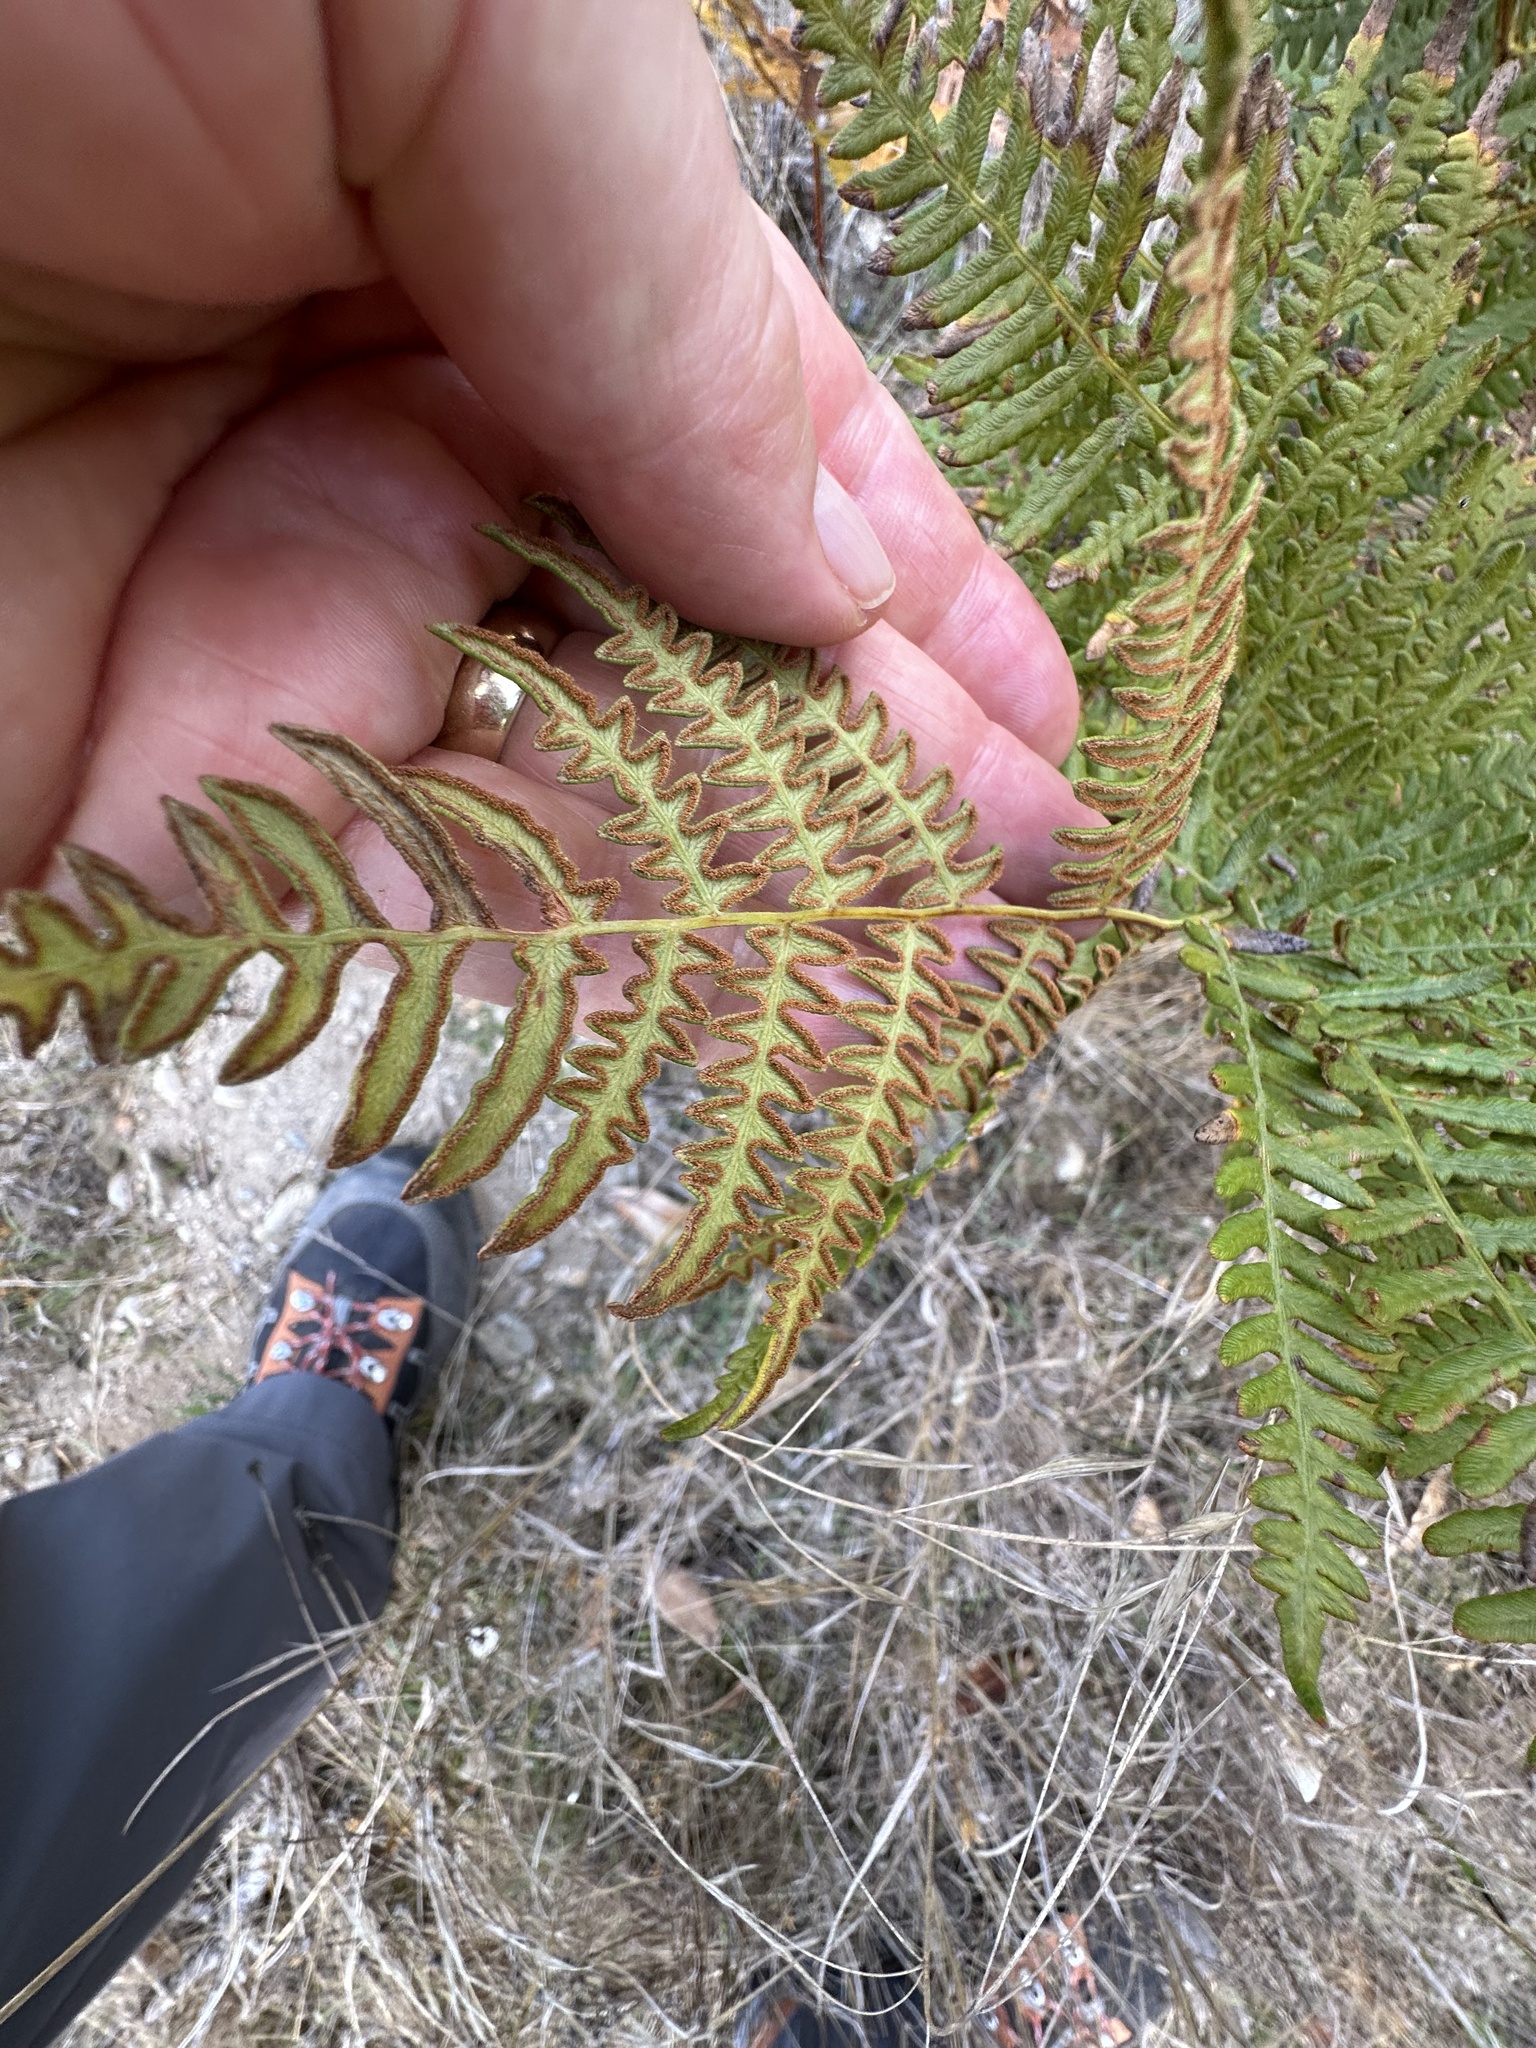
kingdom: Plantae
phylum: Tracheophyta
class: Polypodiopsida
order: Polypodiales
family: Dennstaedtiaceae
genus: Pteridium
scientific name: Pteridium aquilinum
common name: Bracken
